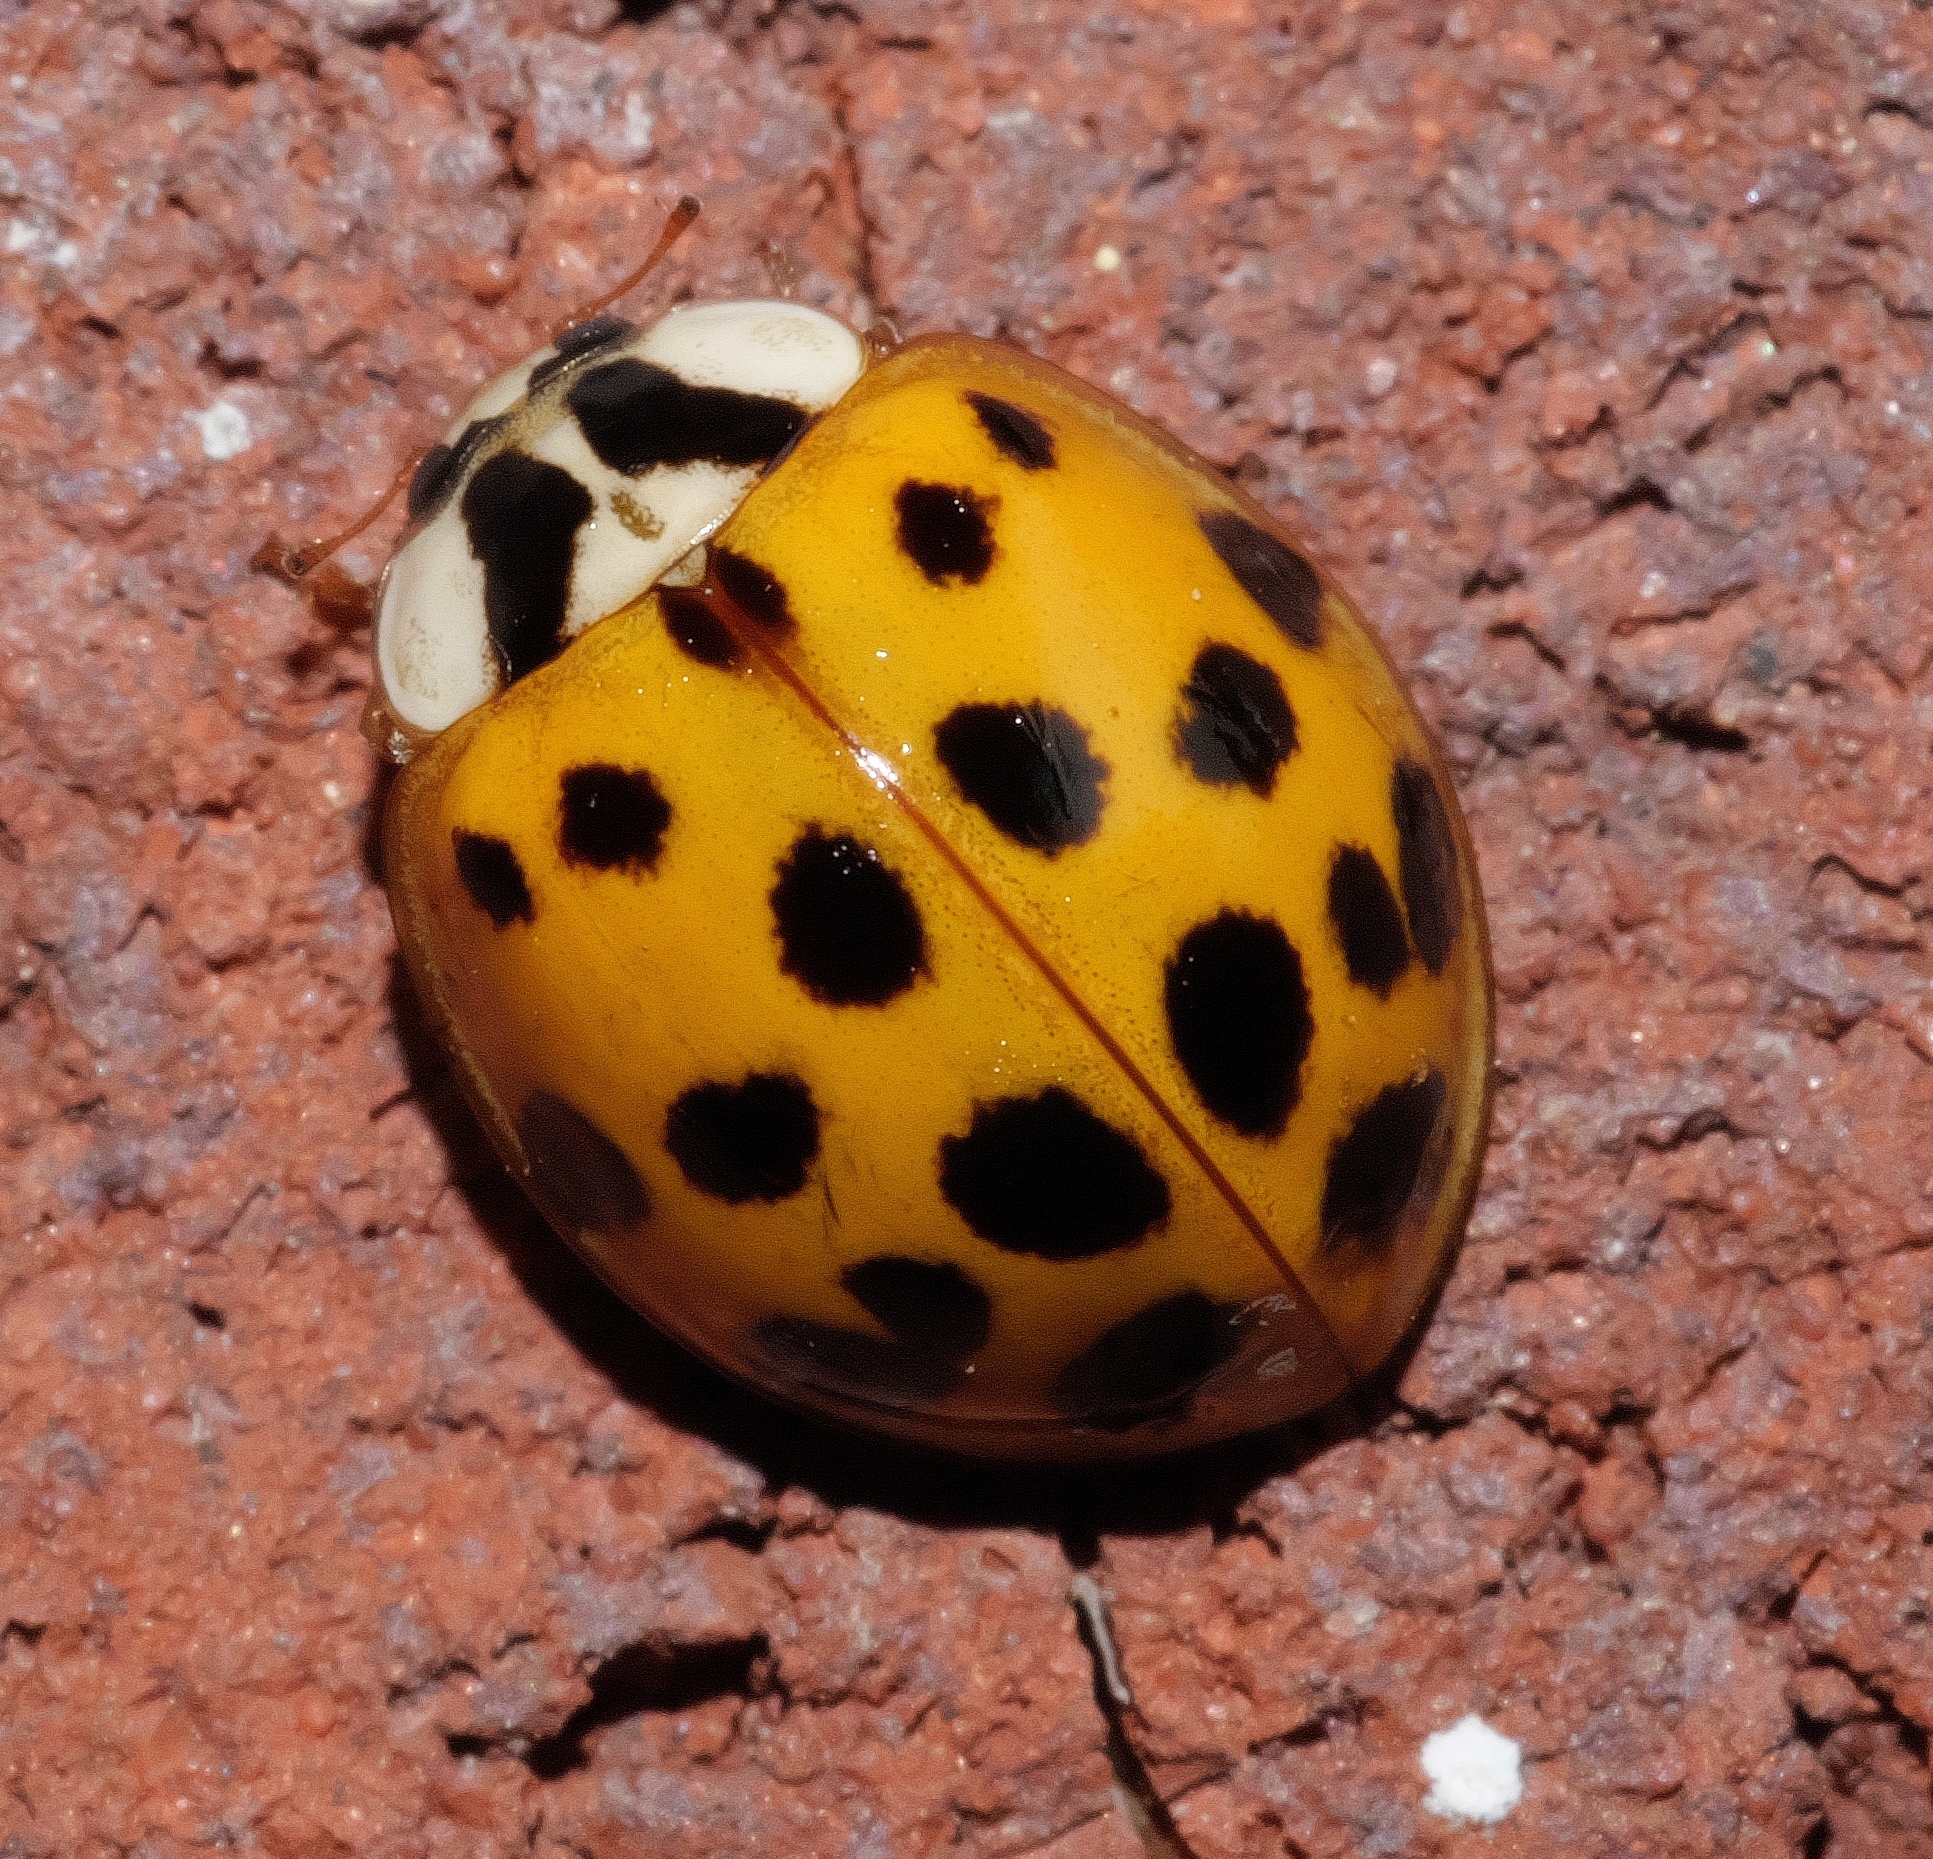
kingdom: Animalia
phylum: Arthropoda
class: Insecta
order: Coleoptera
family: Coccinellidae
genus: Harmonia
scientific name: Harmonia axyridis
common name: Harlequin ladybird
